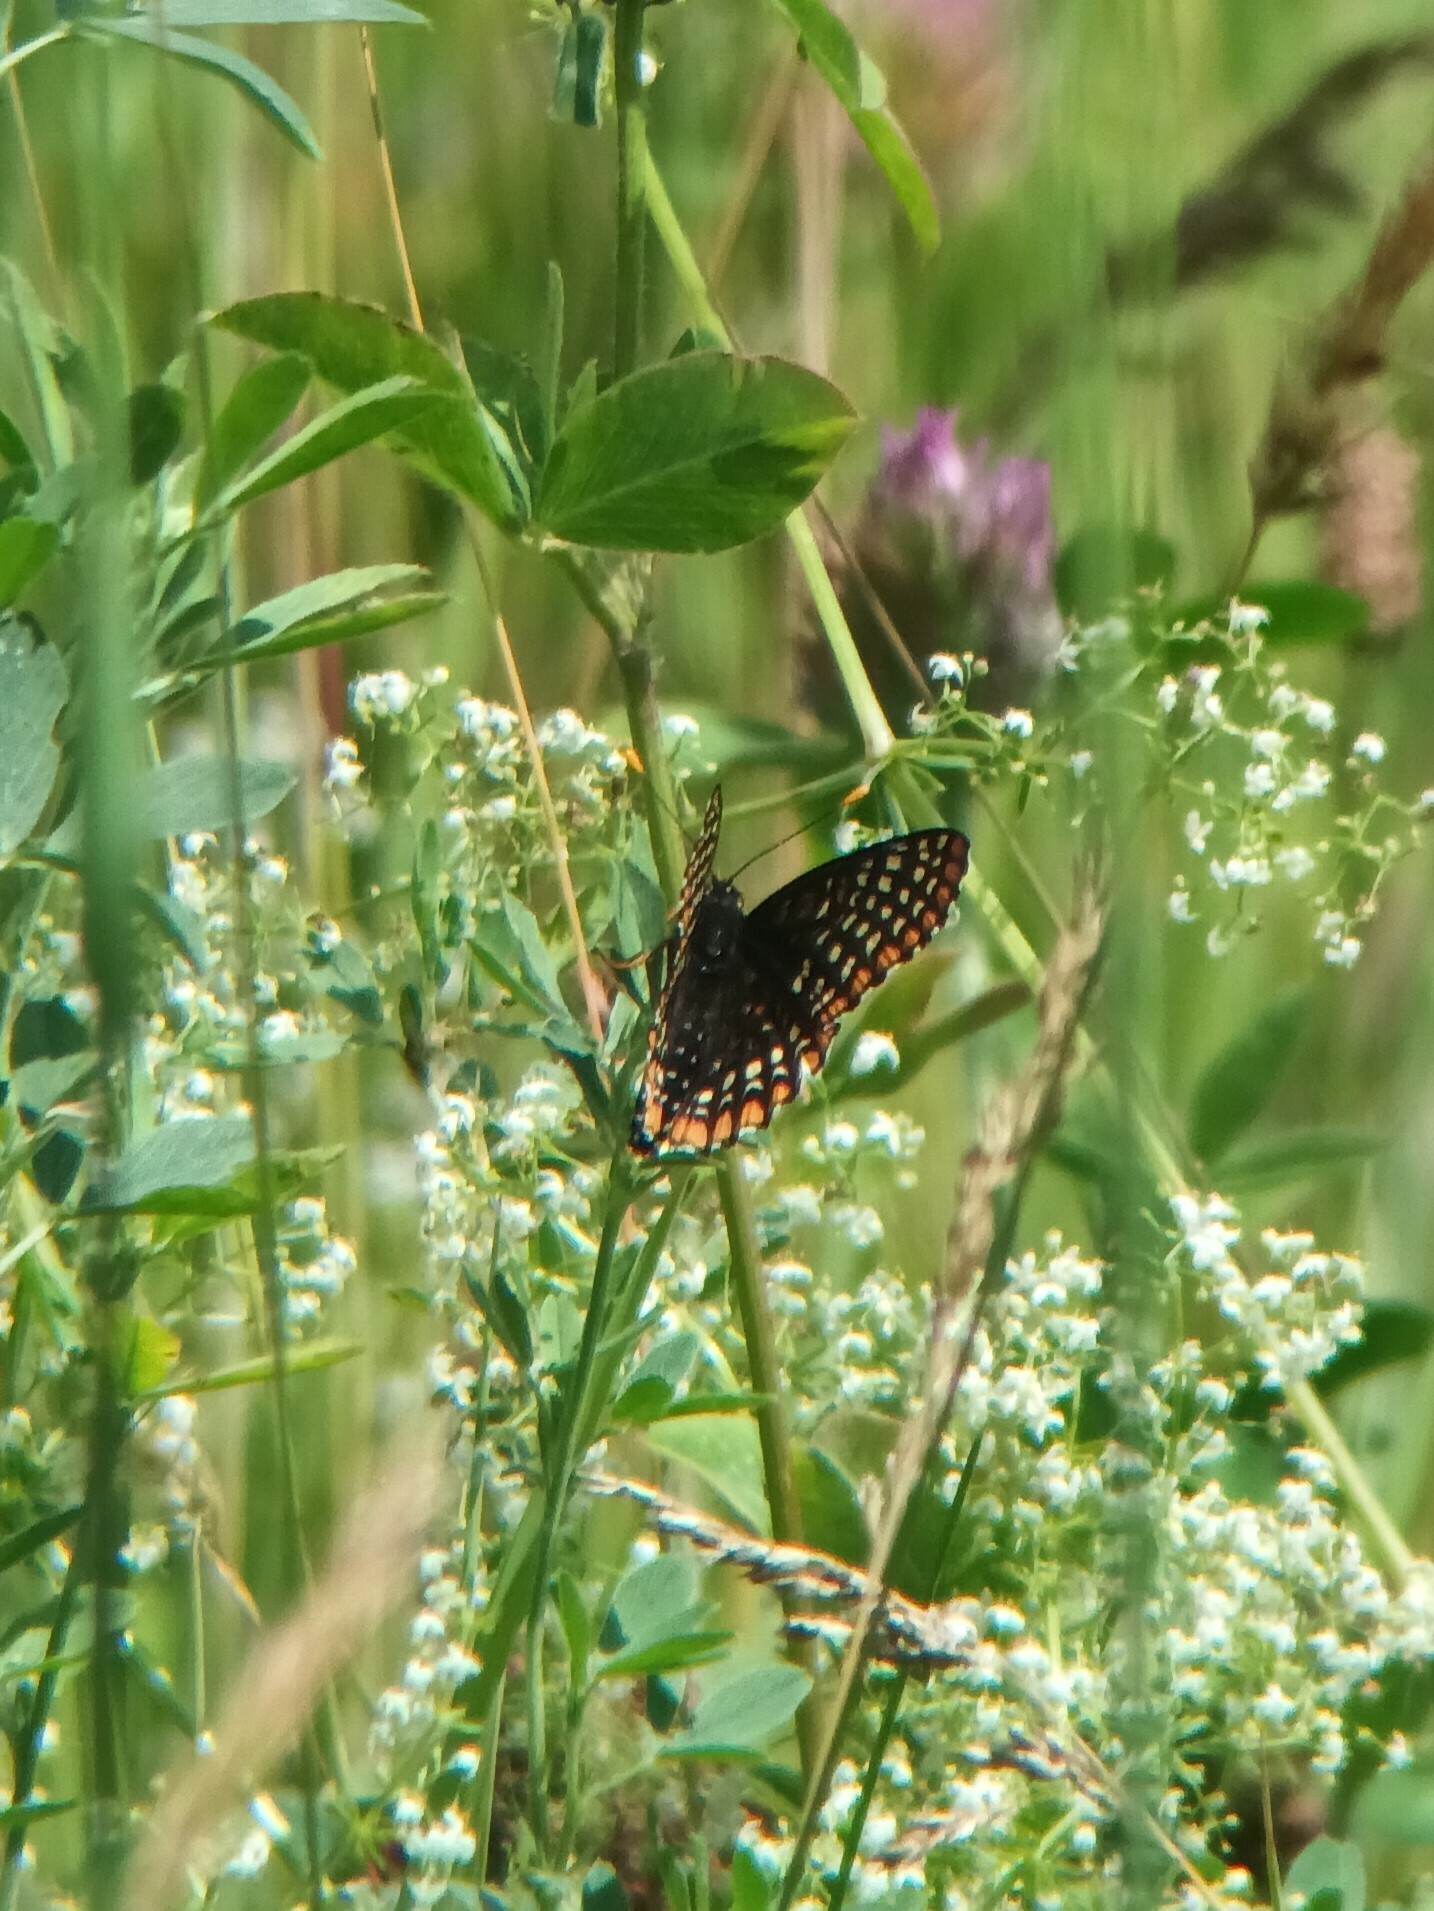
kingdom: Animalia
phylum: Arthropoda
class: Insecta
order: Lepidoptera
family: Nymphalidae
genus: Euphydryas
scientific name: Euphydryas phaeton
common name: Baltimore checkerspot
